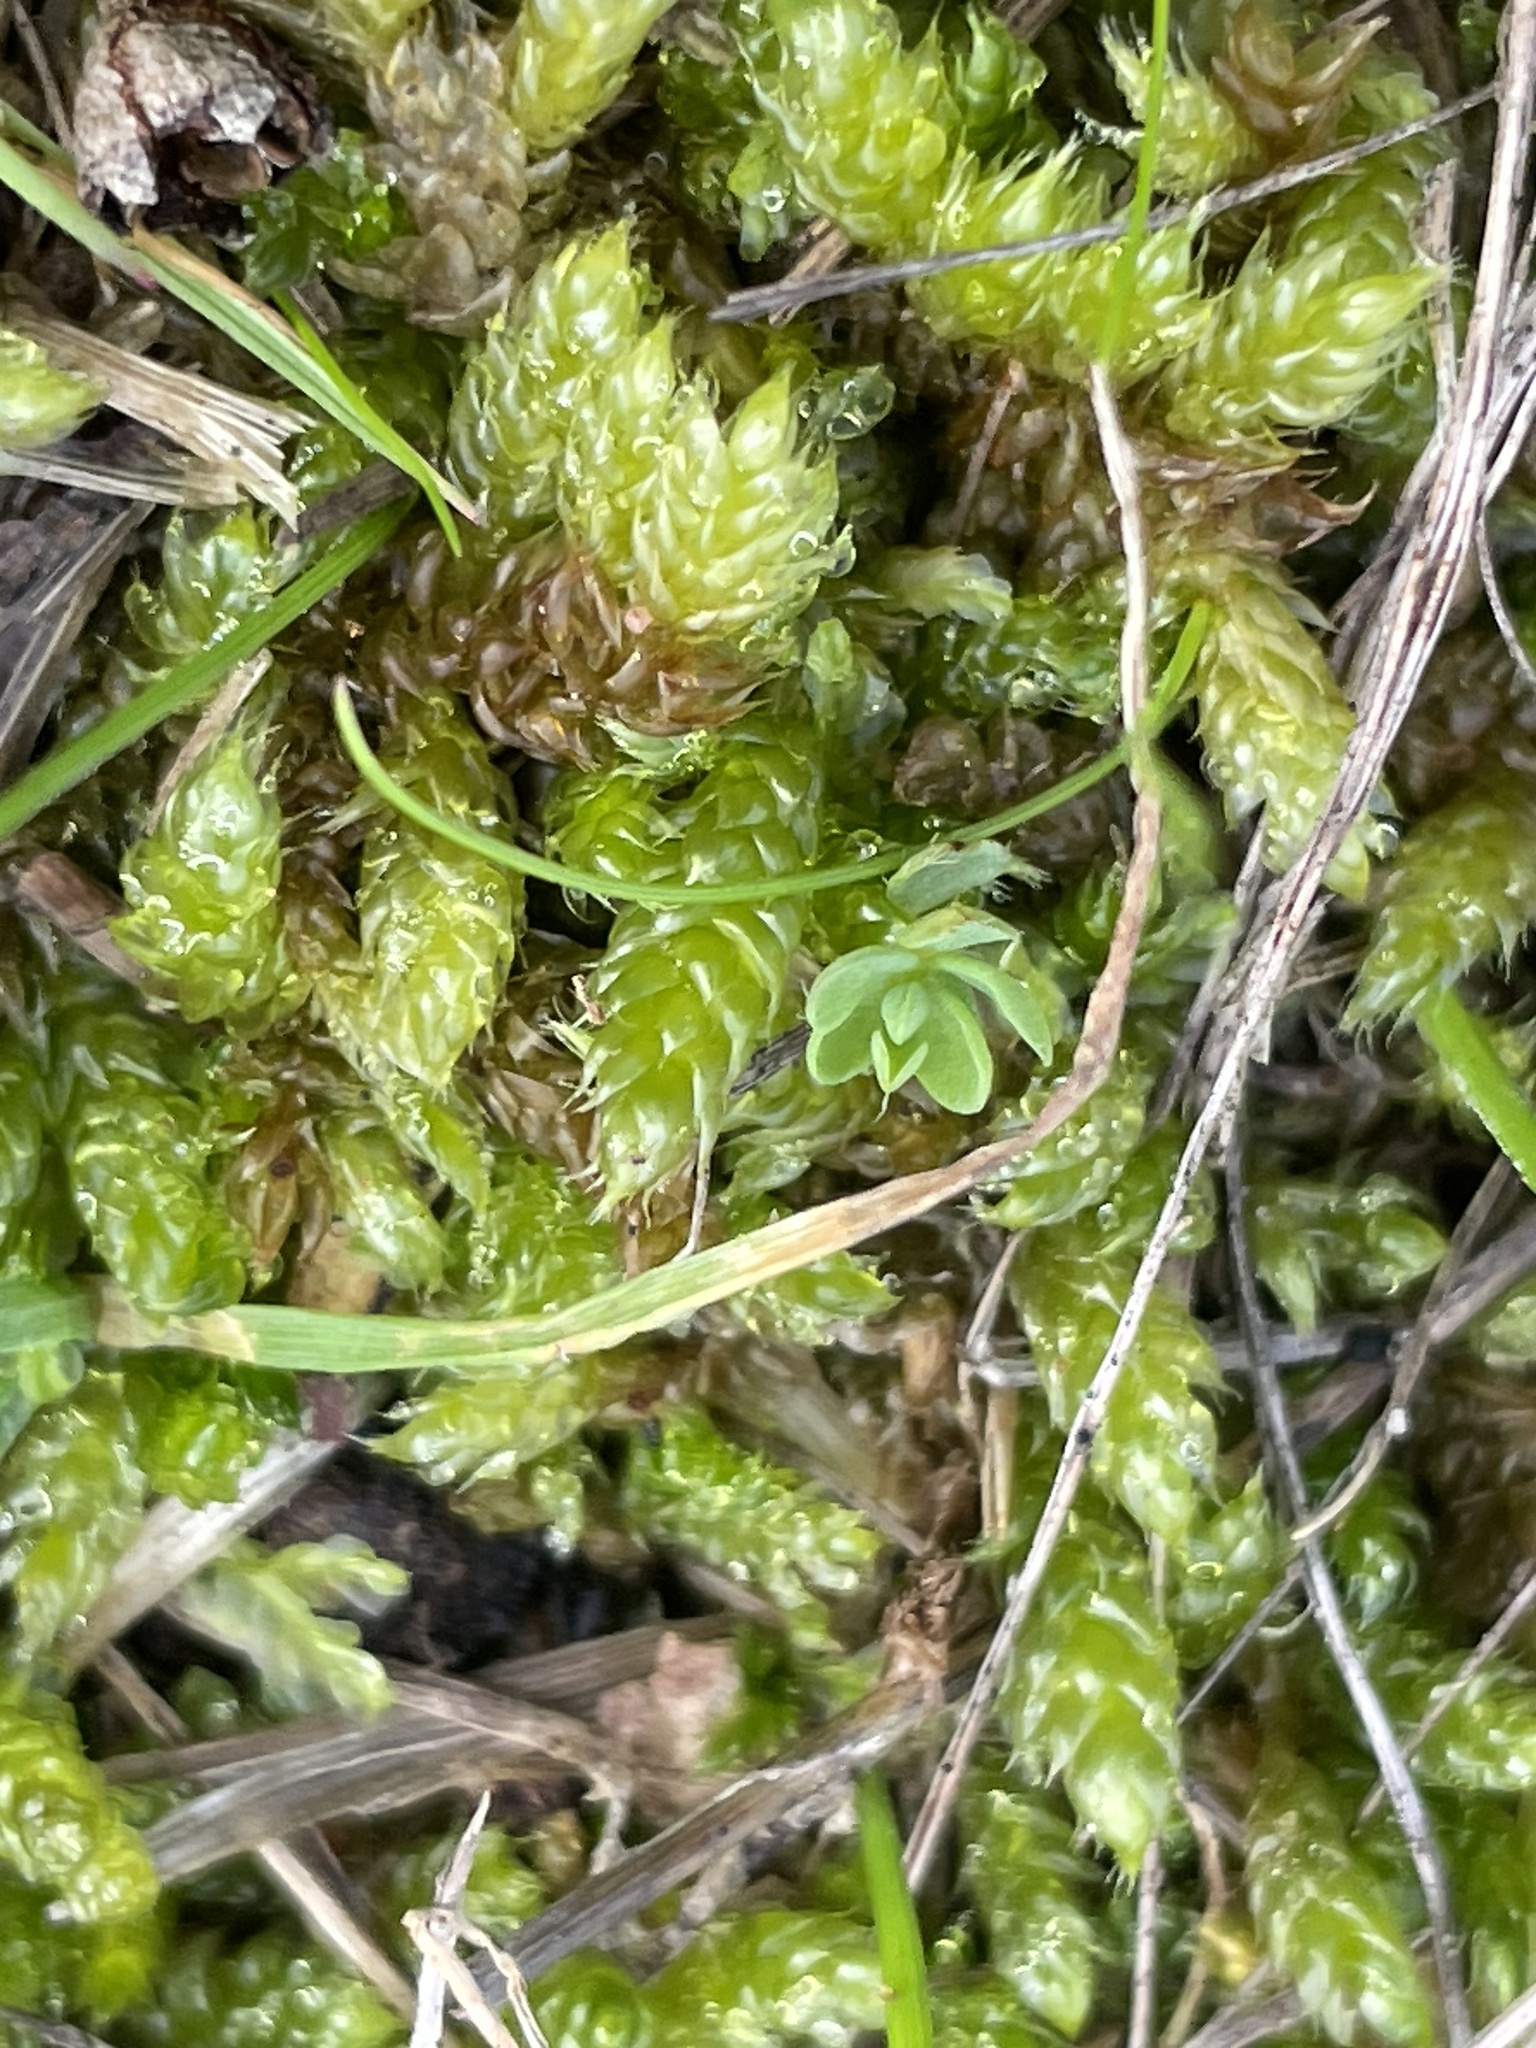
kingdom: Plantae
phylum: Bryophyta
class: Bryopsida
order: Hypnales
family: Hypnaceae
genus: Hypnum
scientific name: Hypnum cupressiforme
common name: Cypress-leaved plait-moss
